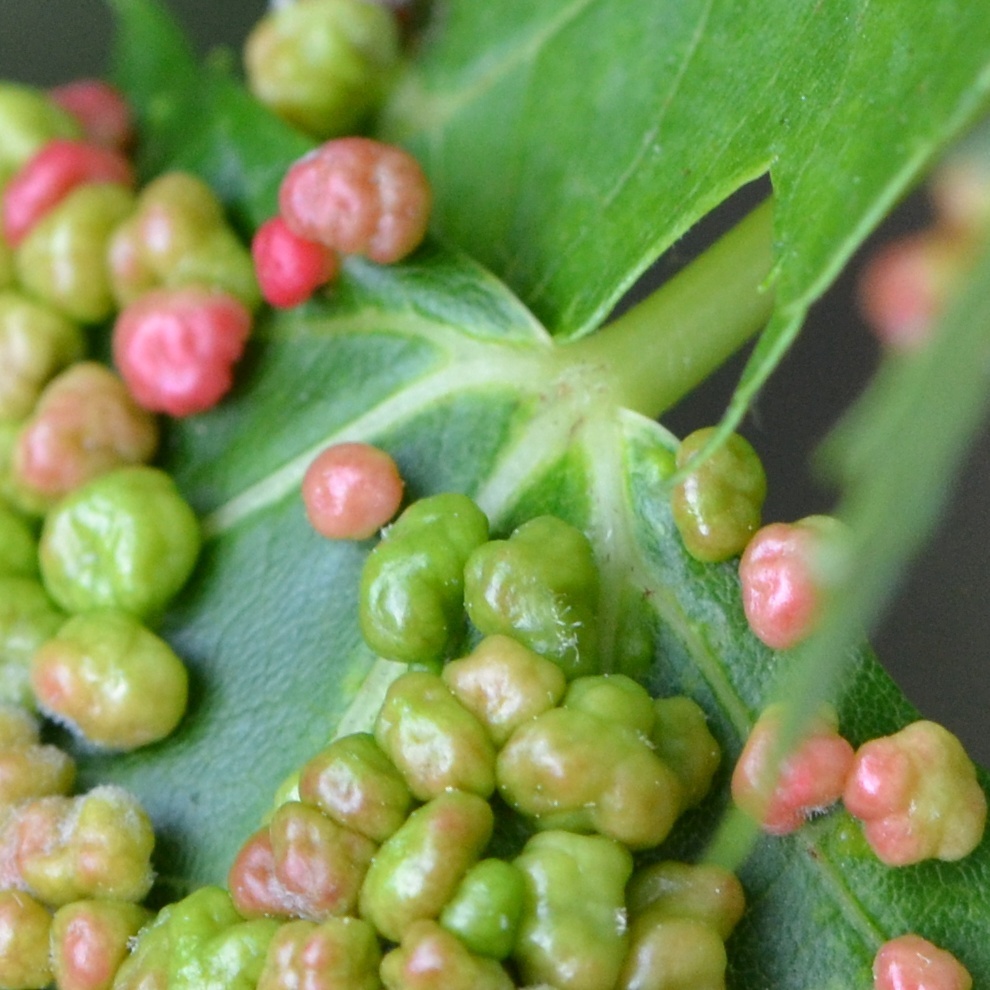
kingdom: Animalia
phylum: Arthropoda
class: Arachnida
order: Trombidiformes
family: Eriophyidae
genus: Vasates
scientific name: Vasates quadripedes
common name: Maple bladder gall mite
